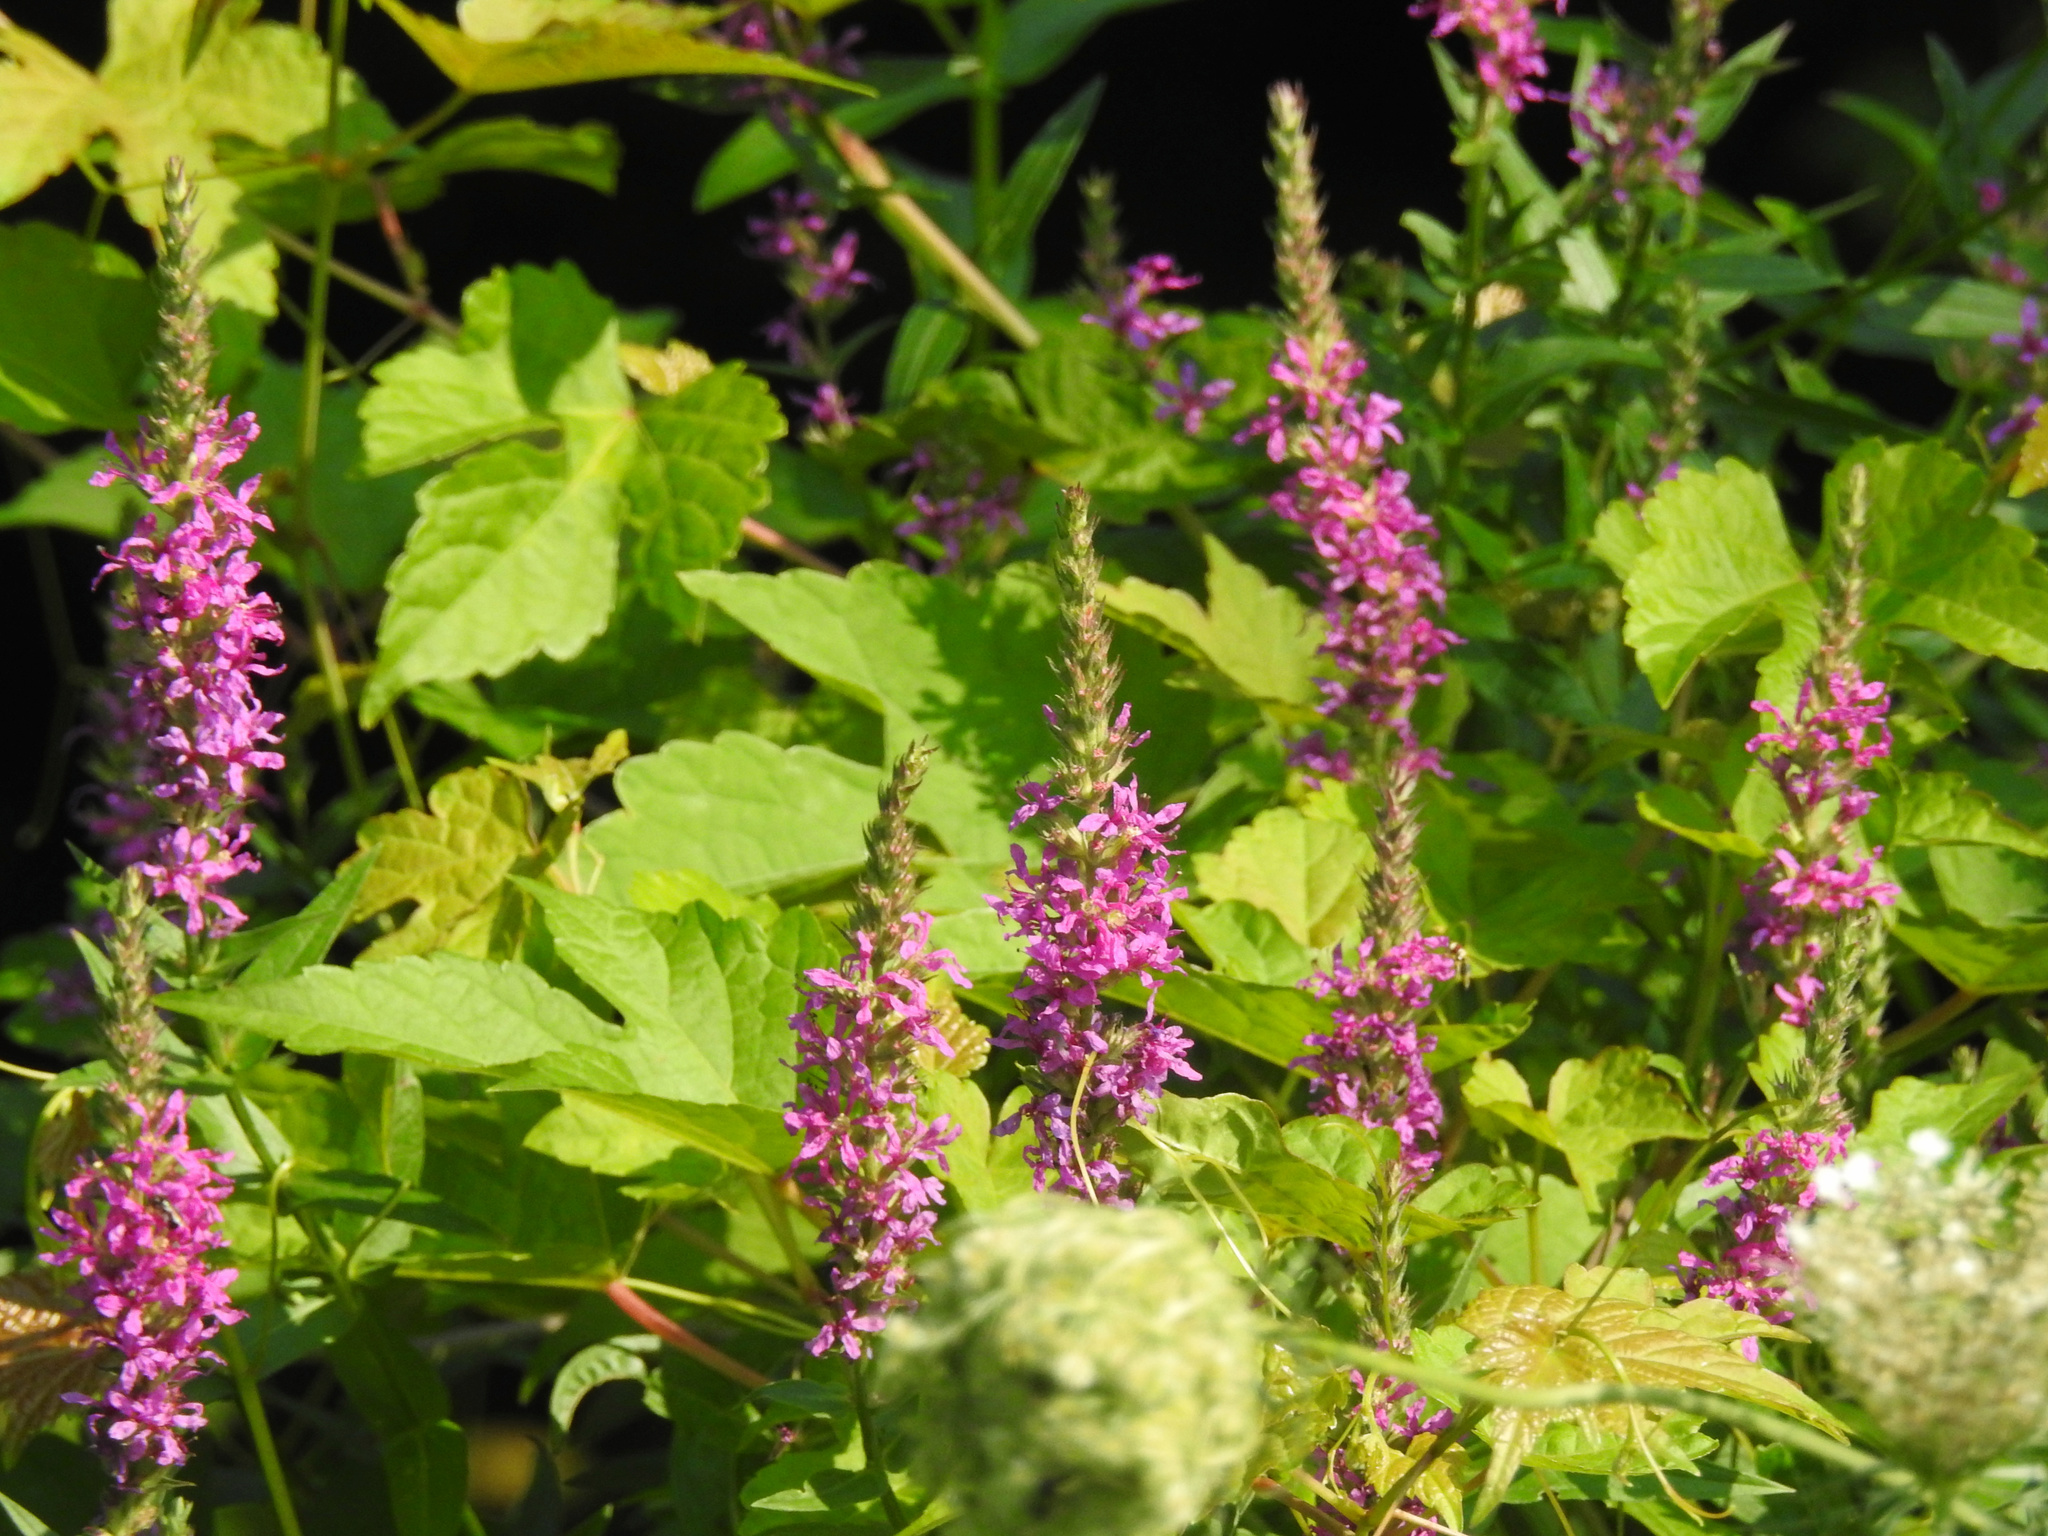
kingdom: Plantae
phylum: Tracheophyta
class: Magnoliopsida
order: Myrtales
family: Lythraceae
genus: Lythrum
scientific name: Lythrum salicaria
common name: Purple loosestrife
